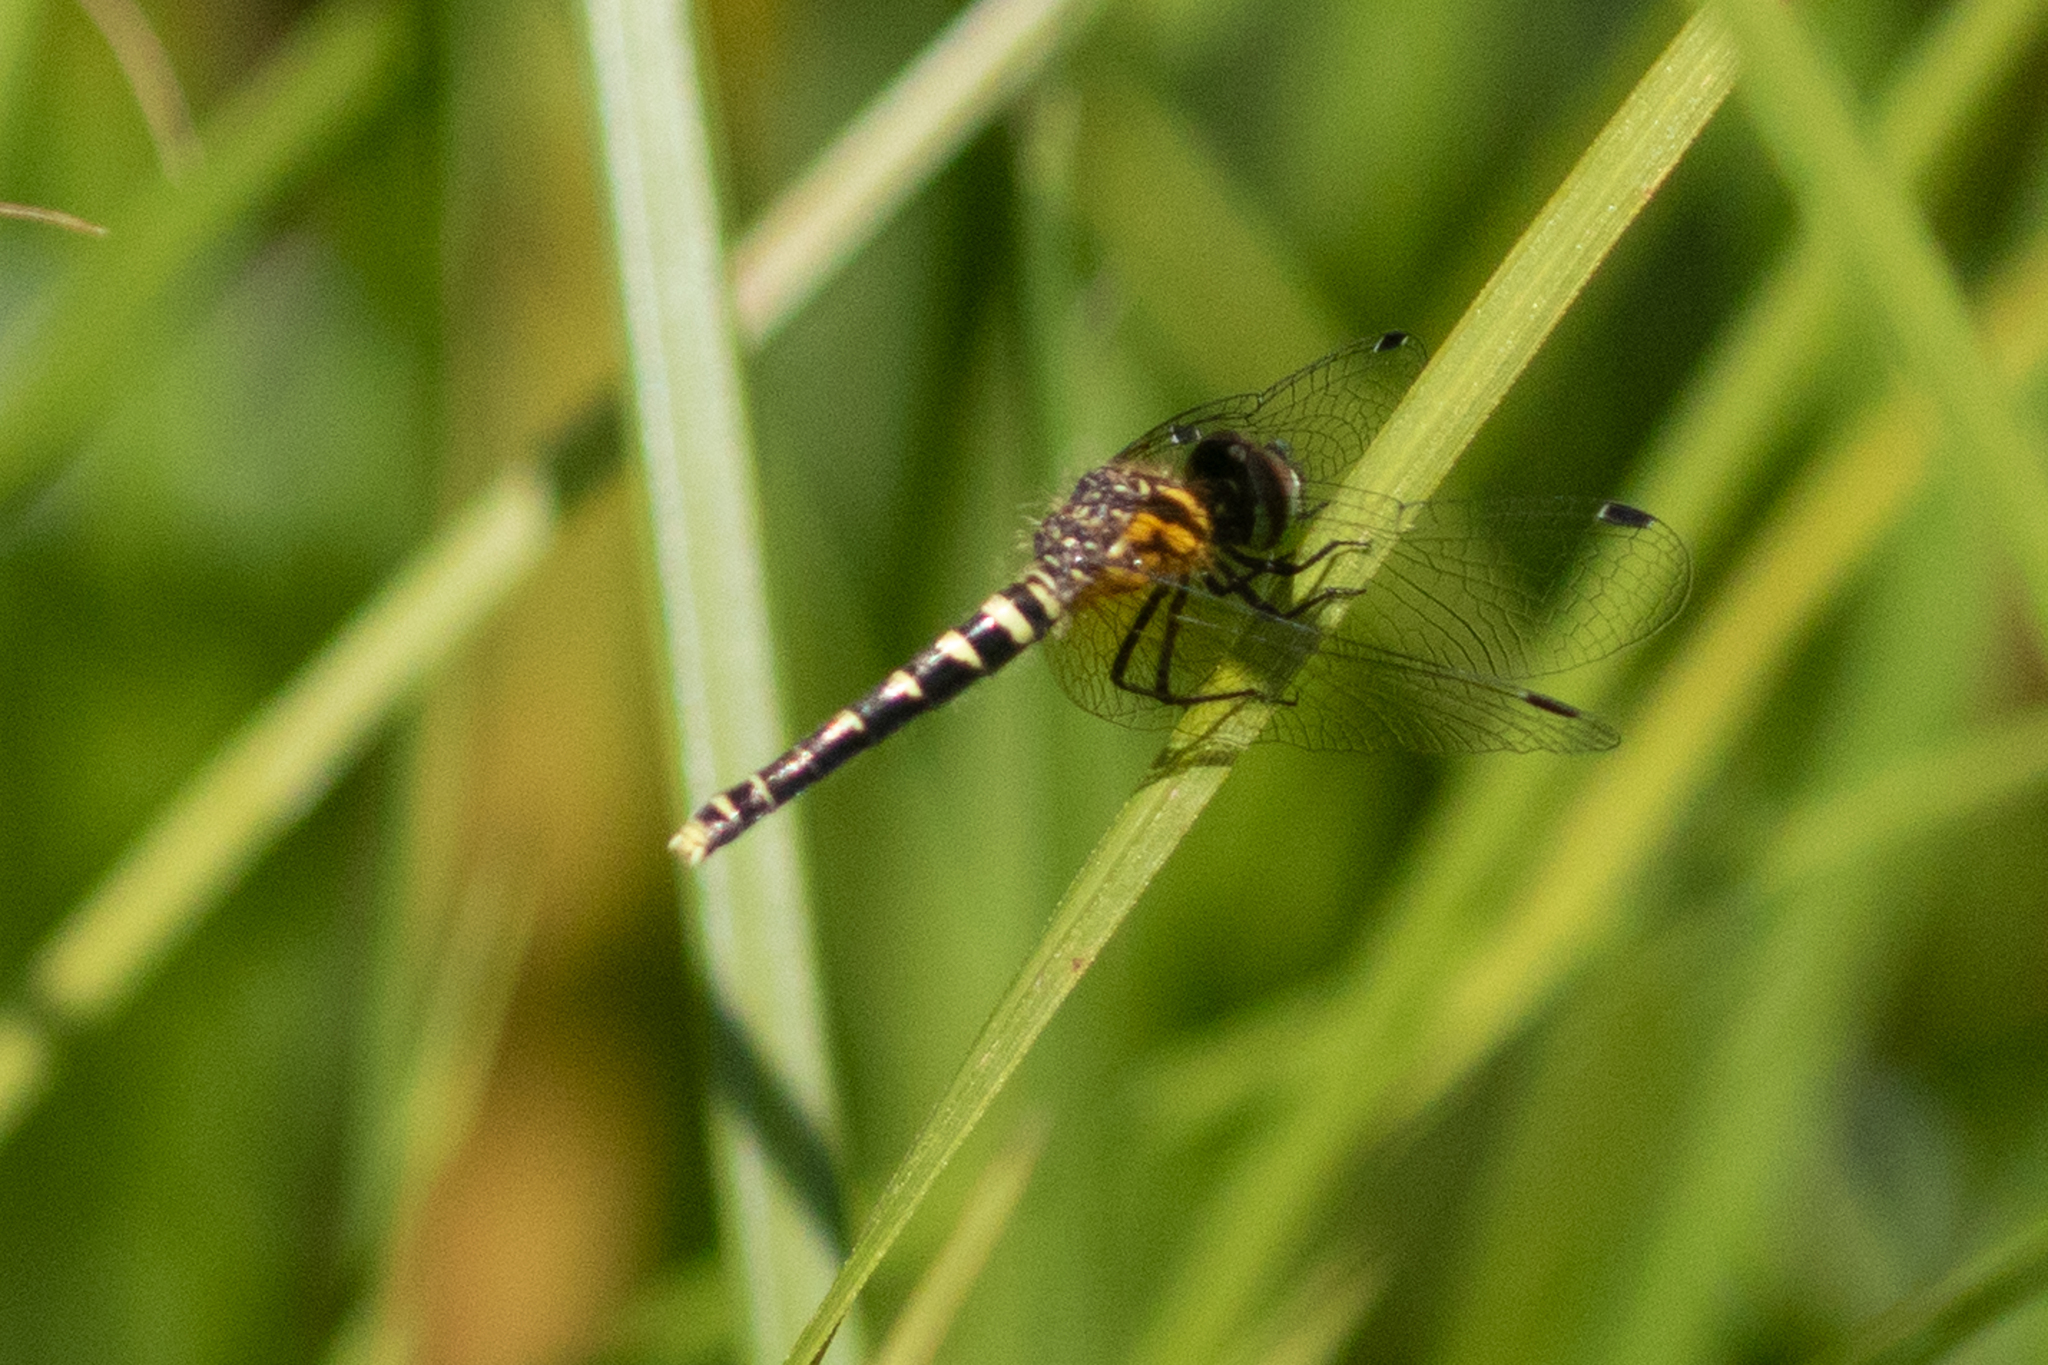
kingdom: Animalia
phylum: Arthropoda
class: Insecta
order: Odonata
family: Libellulidae
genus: Nannothemis
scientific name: Nannothemis bella
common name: Elfin skimmer
